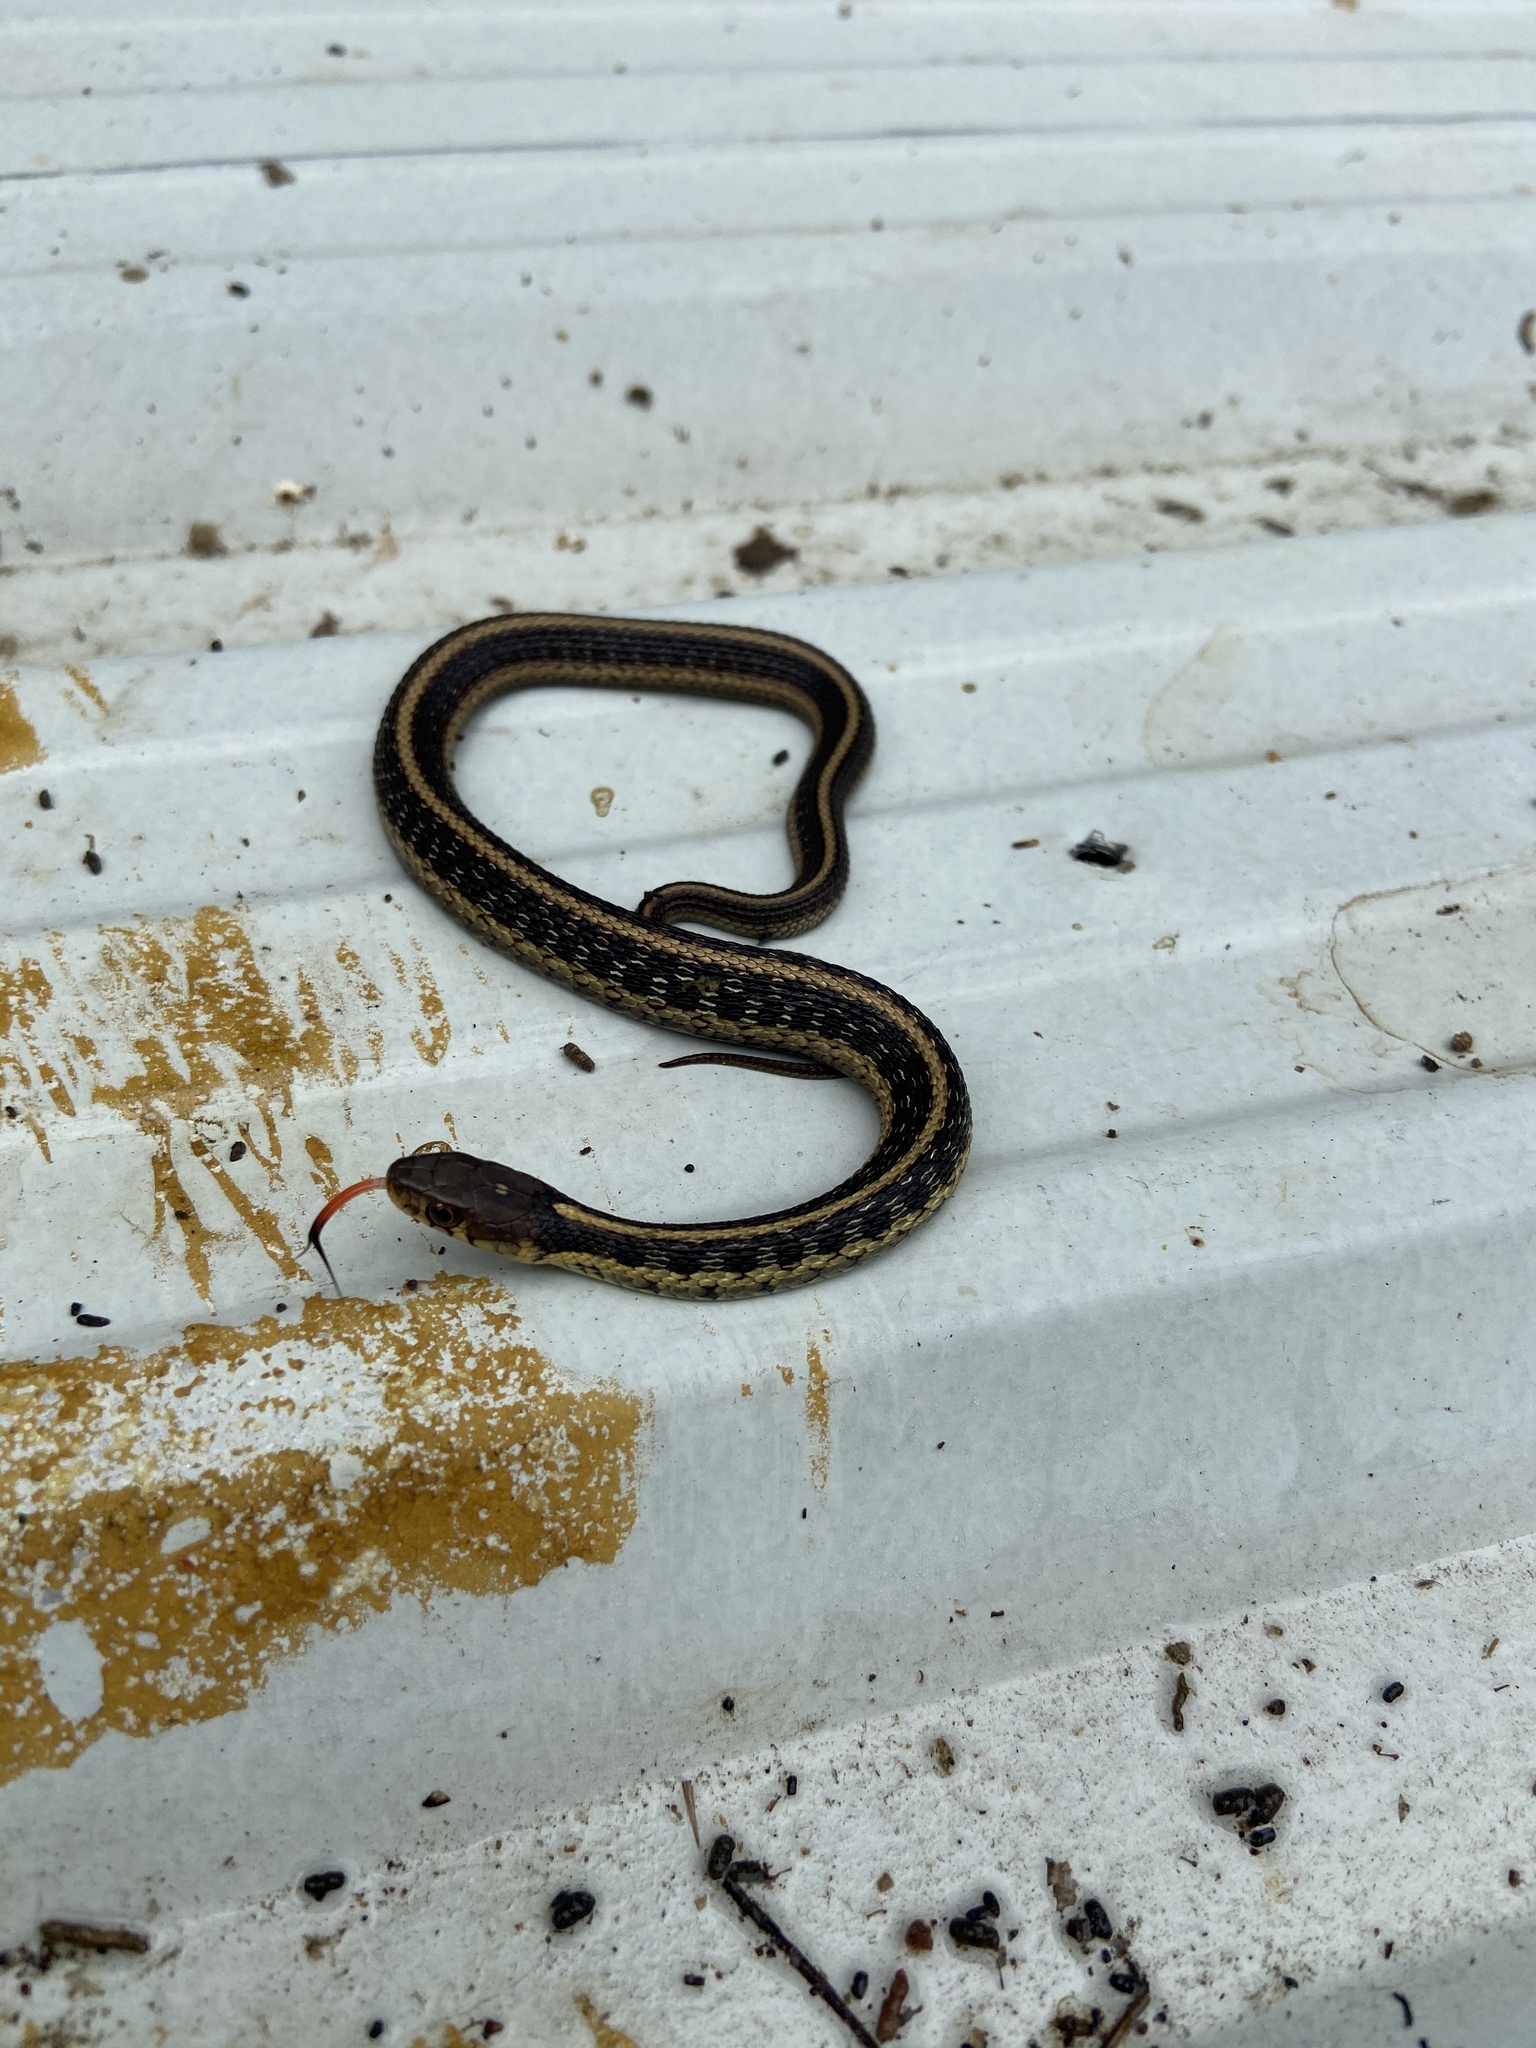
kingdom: Animalia
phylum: Chordata
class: Squamata
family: Colubridae
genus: Thamnophis
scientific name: Thamnophis sirtalis
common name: Common garter snake
